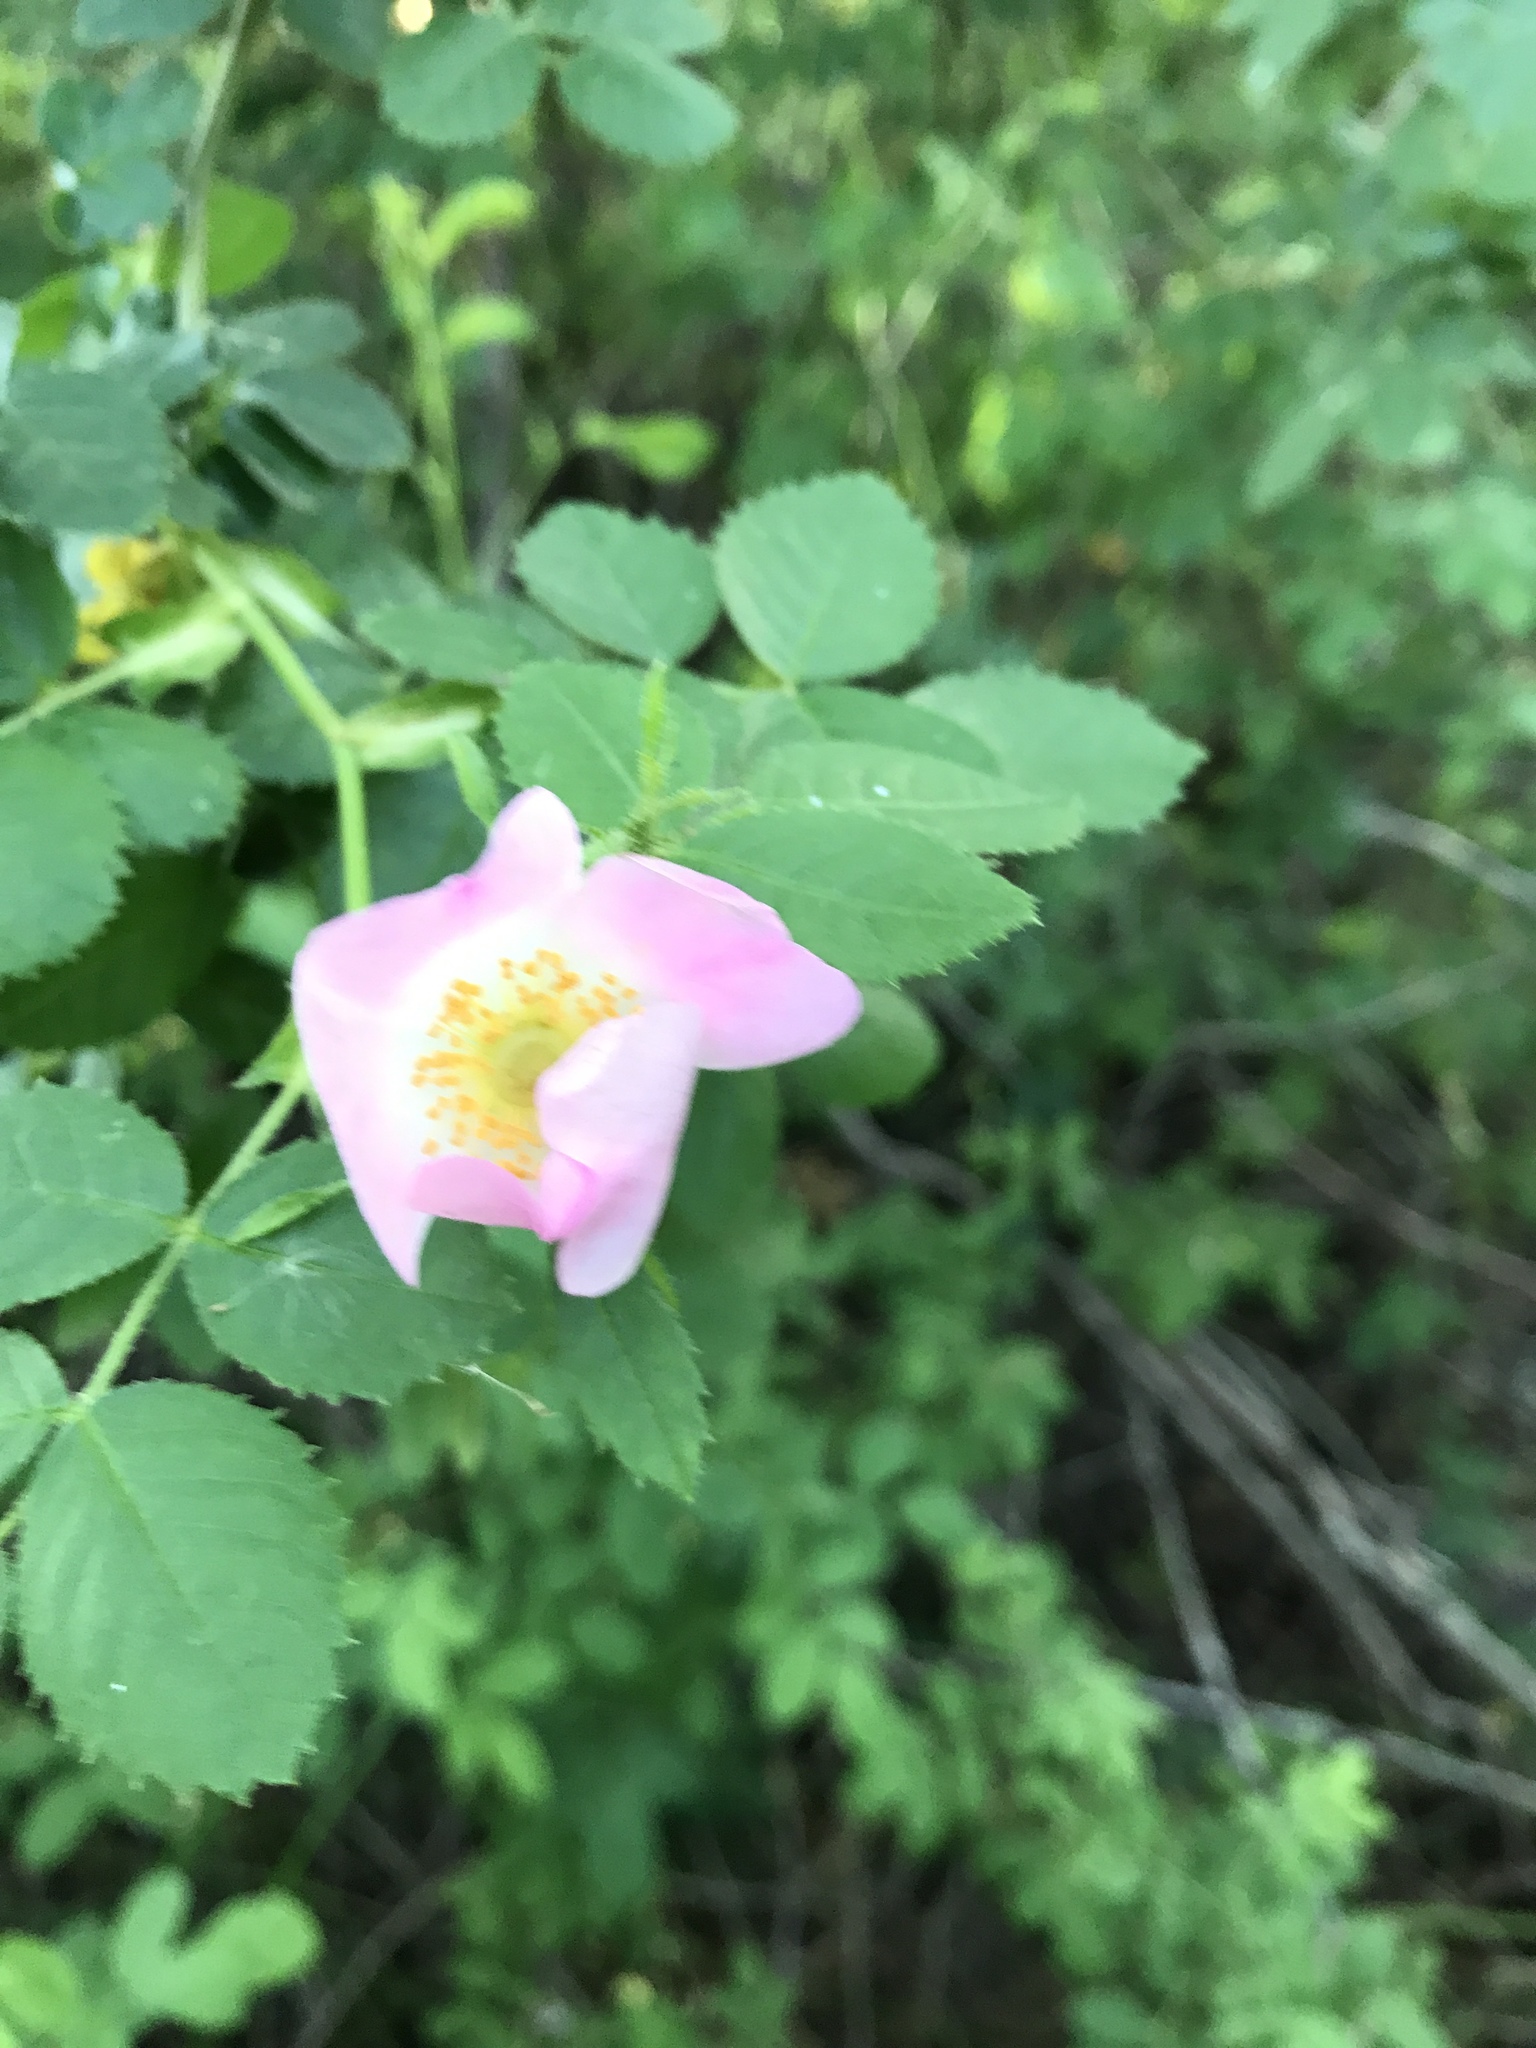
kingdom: Plantae
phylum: Tracheophyta
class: Magnoliopsida
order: Rosales
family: Rosaceae
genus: Rosa
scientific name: Rosa californica
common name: California rose
